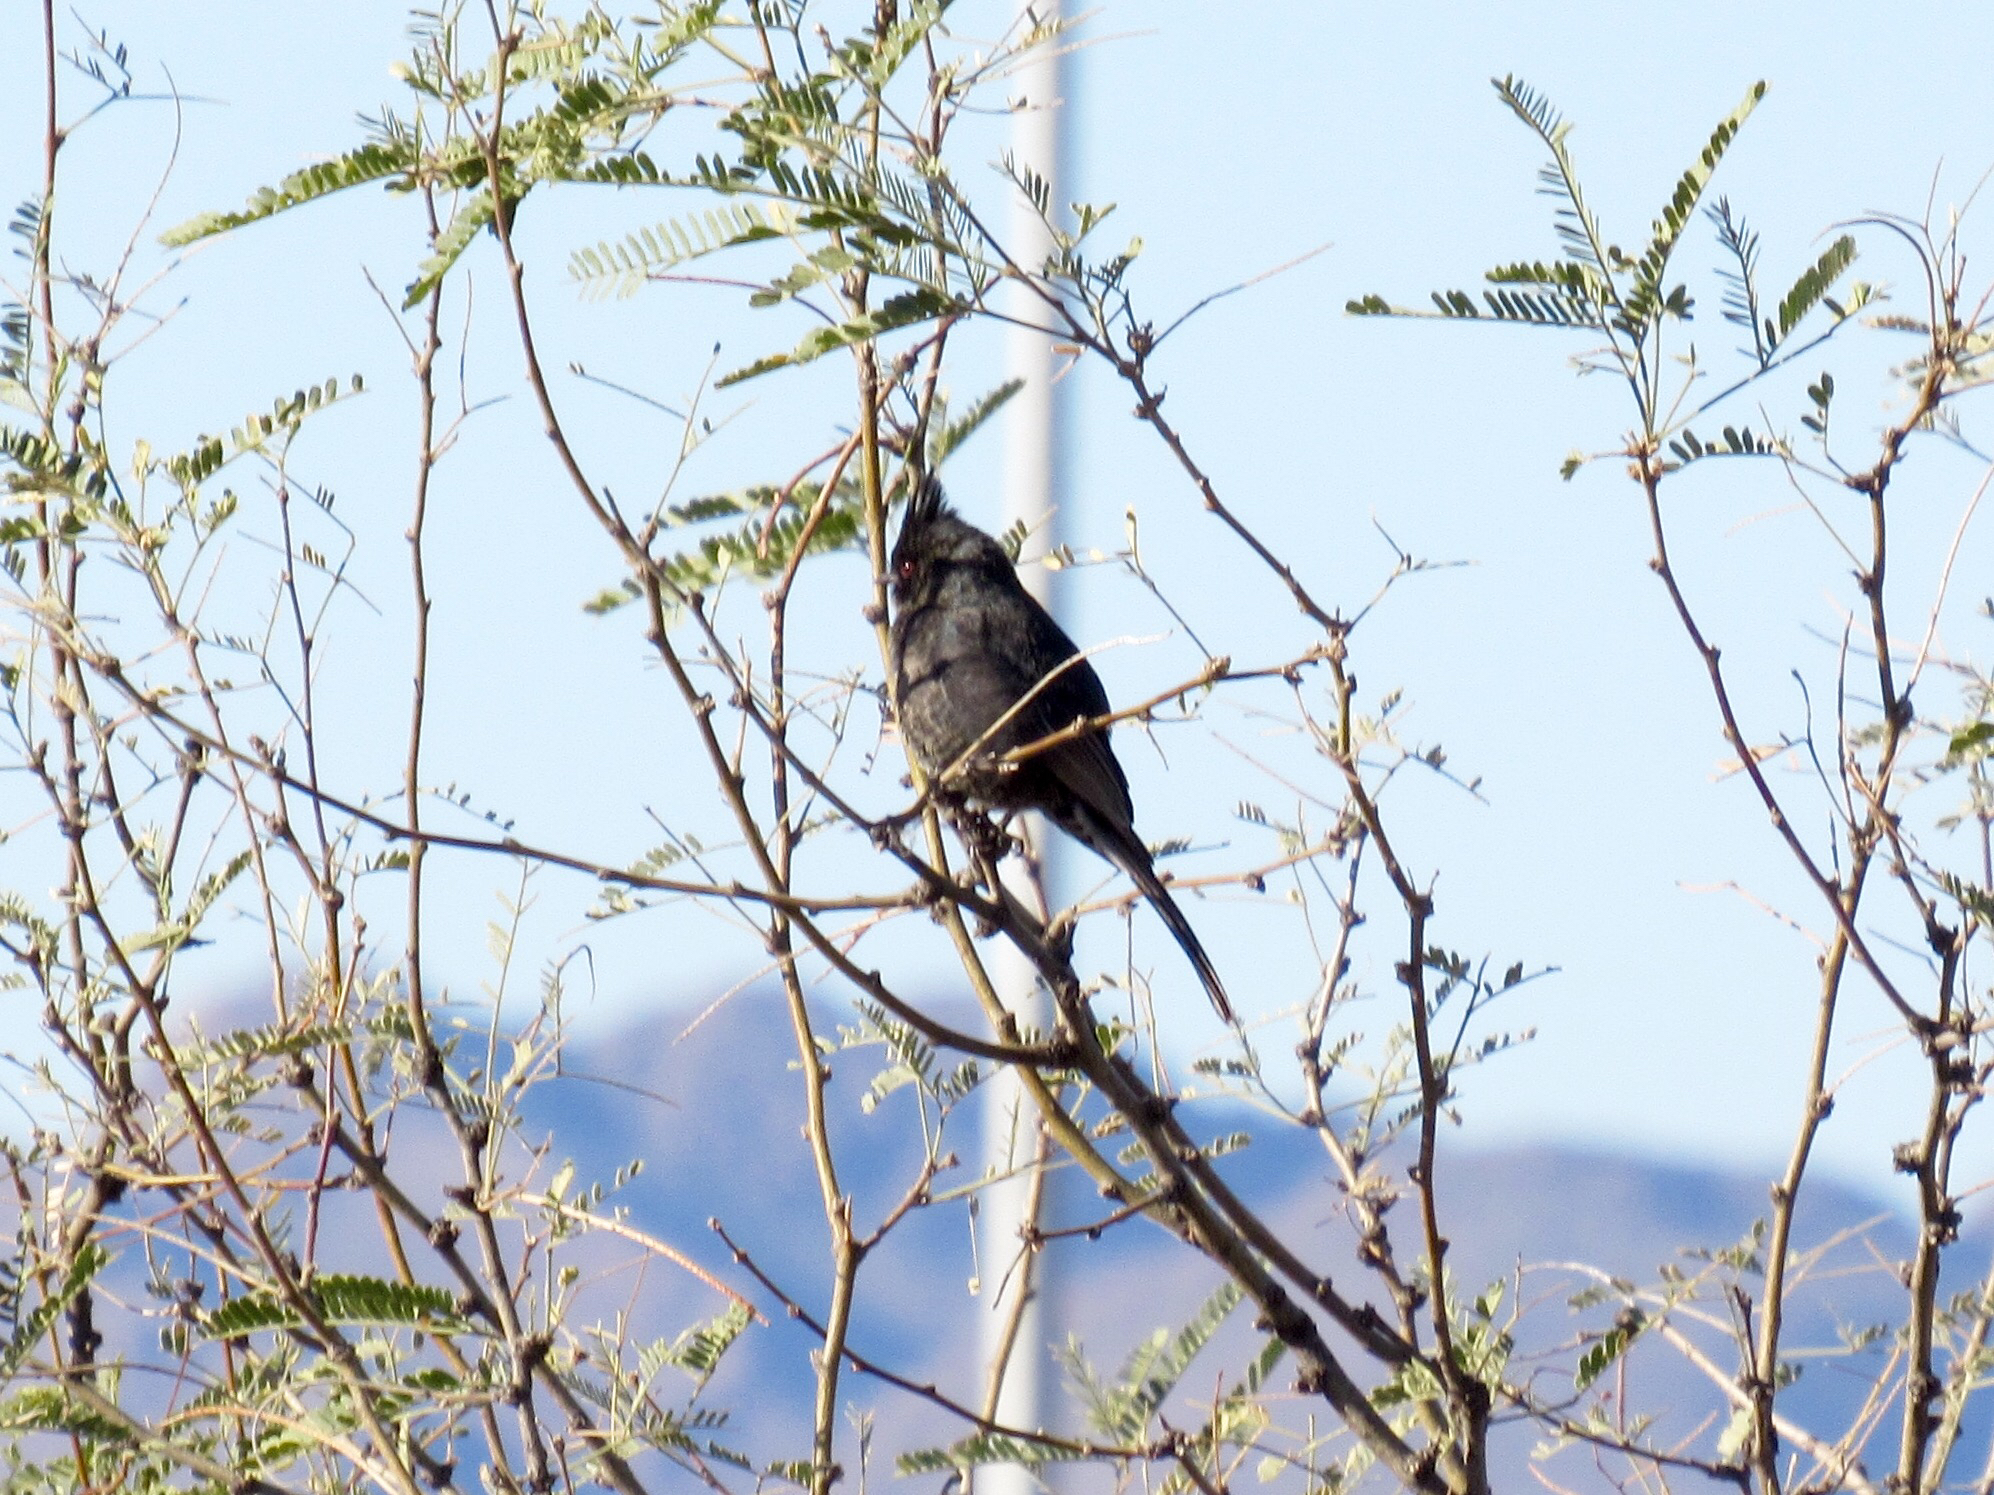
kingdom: Animalia
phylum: Chordata
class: Aves
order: Passeriformes
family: Ptilogonatidae
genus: Phainopepla
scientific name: Phainopepla nitens
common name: Phainopepla
